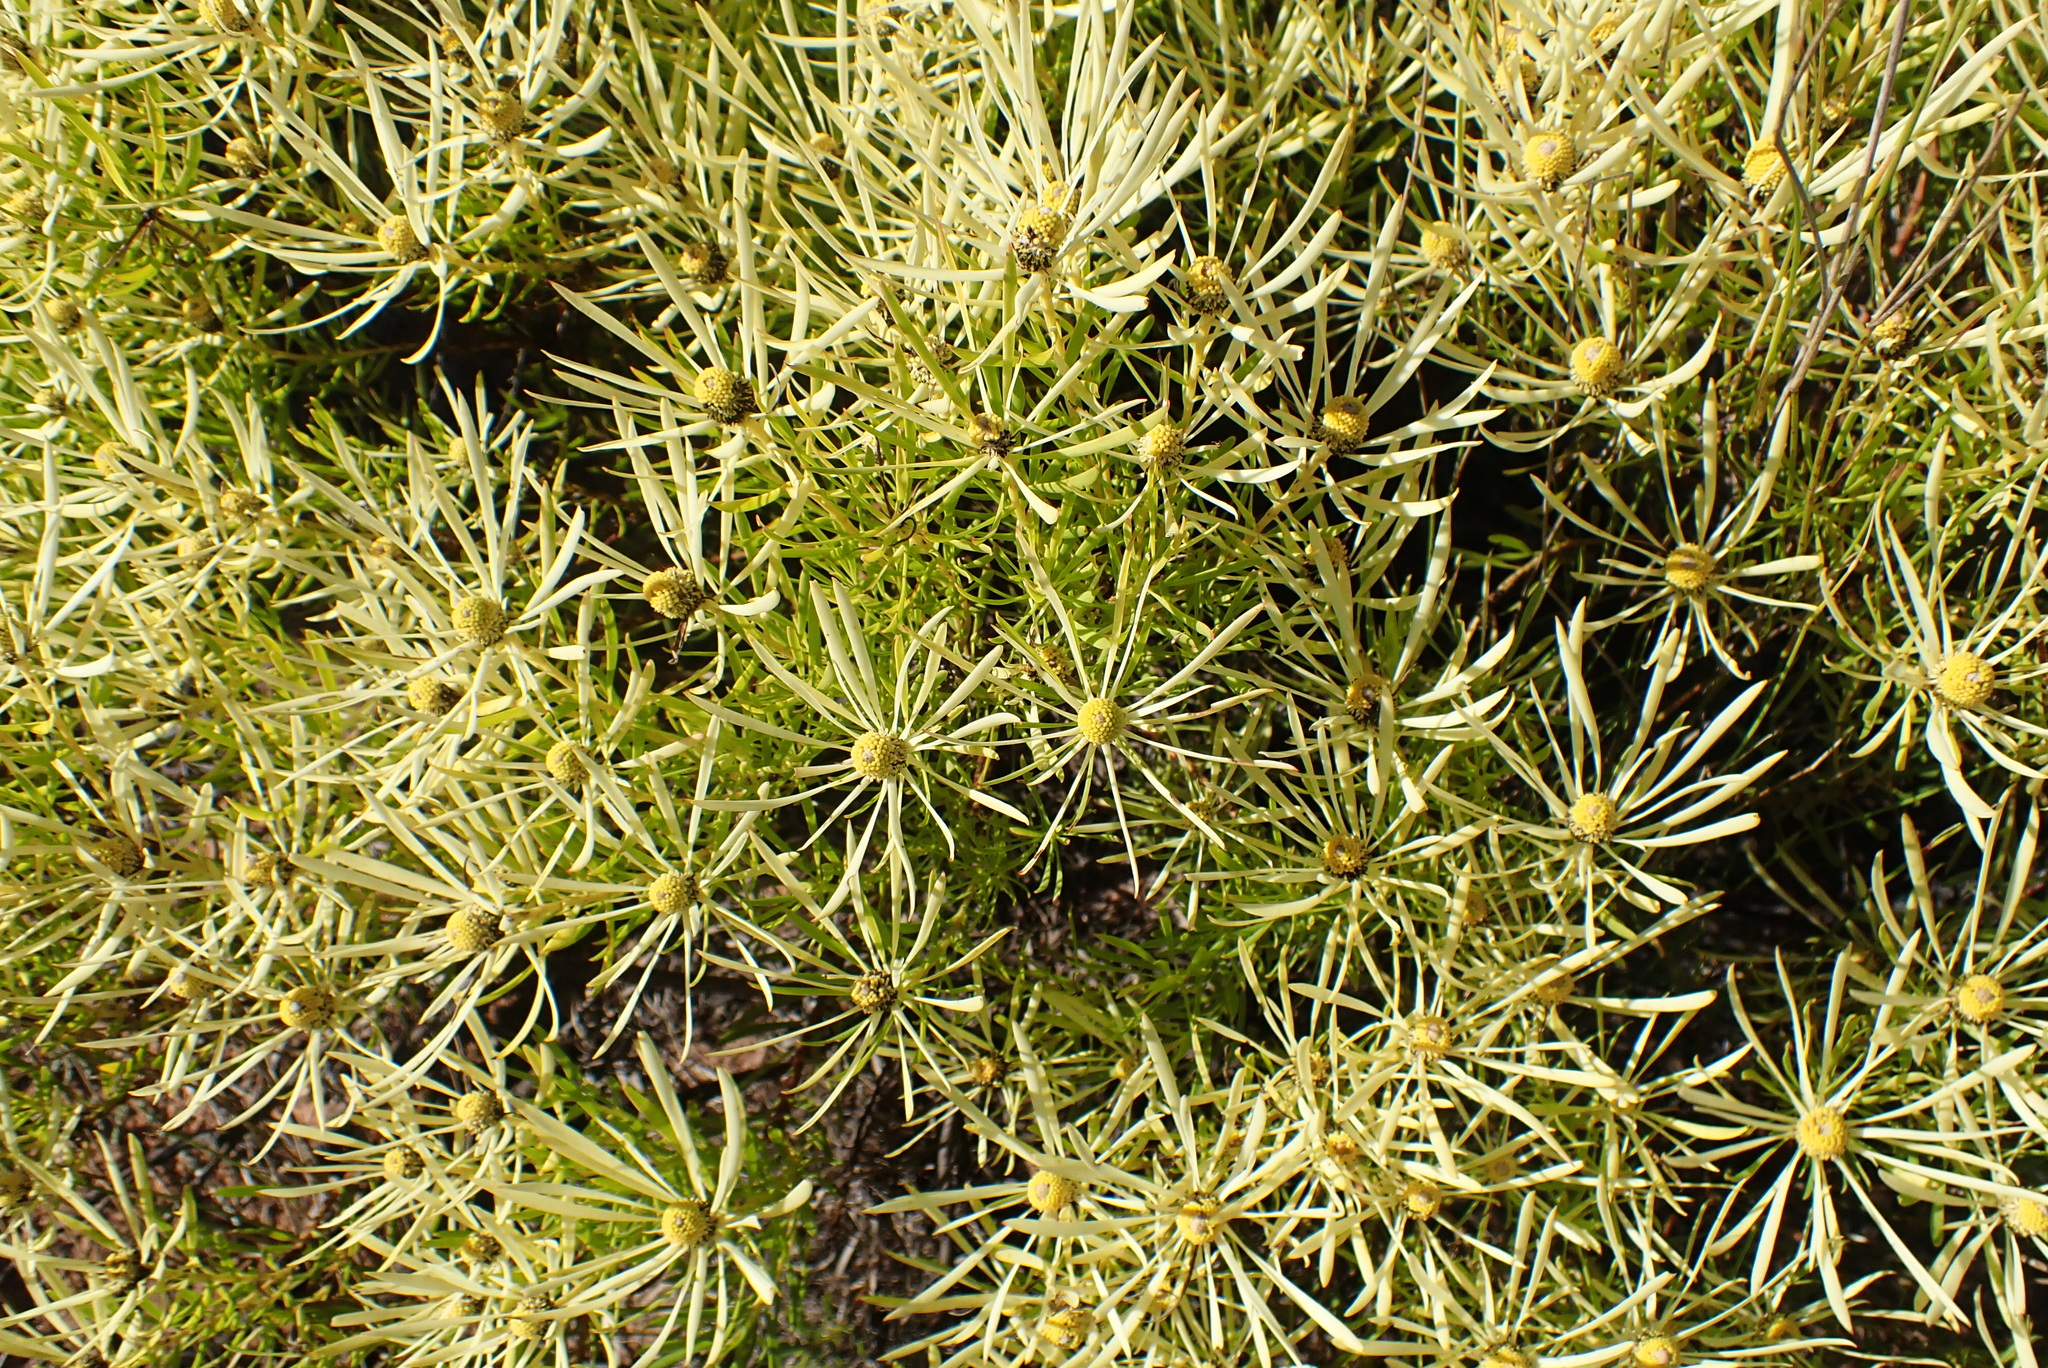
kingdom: Plantae
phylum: Tracheophyta
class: Magnoliopsida
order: Proteales
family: Proteaceae
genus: Leucadendron
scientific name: Leucadendron salignum
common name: Common sunshine conebush
